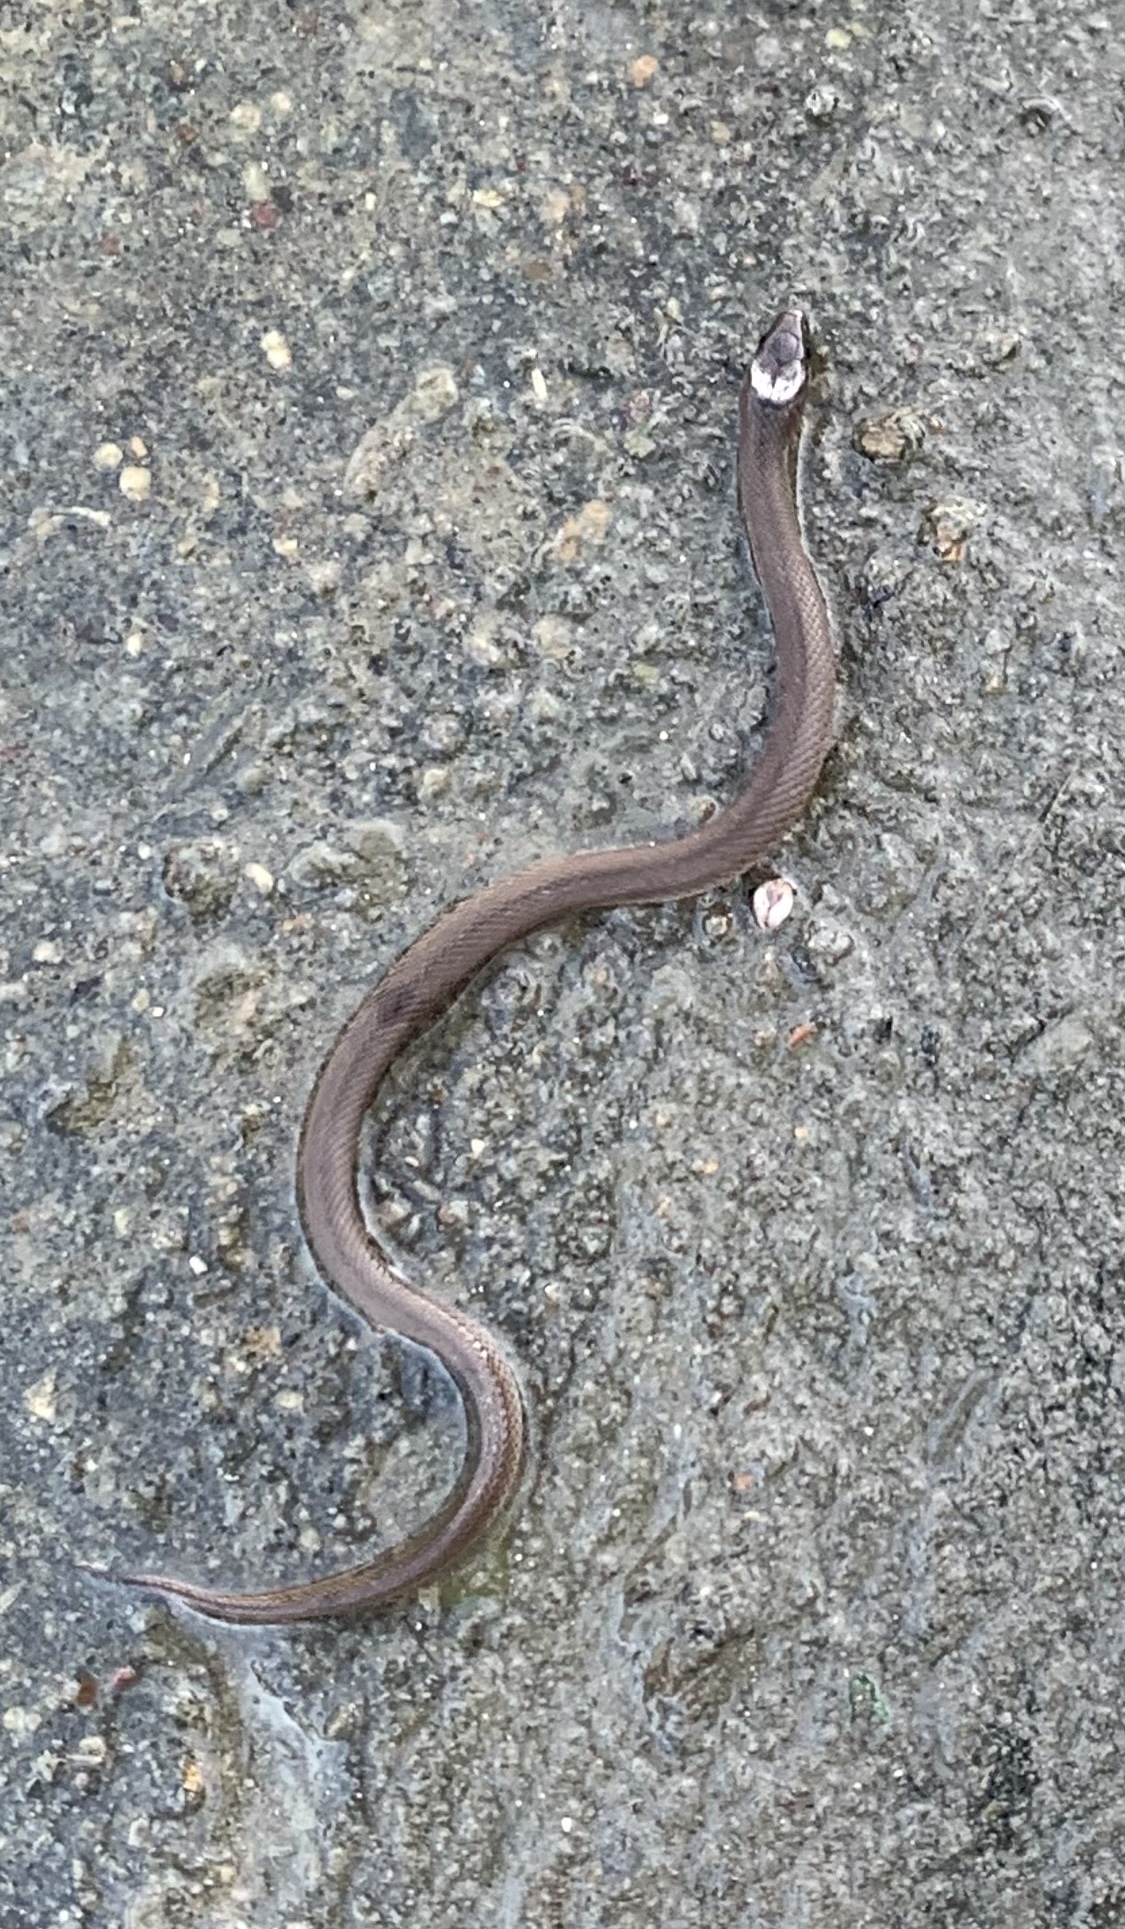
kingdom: Animalia
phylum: Chordata
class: Squamata
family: Colubridae
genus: Haldea
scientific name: Haldea striatula
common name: Rough earth snake
